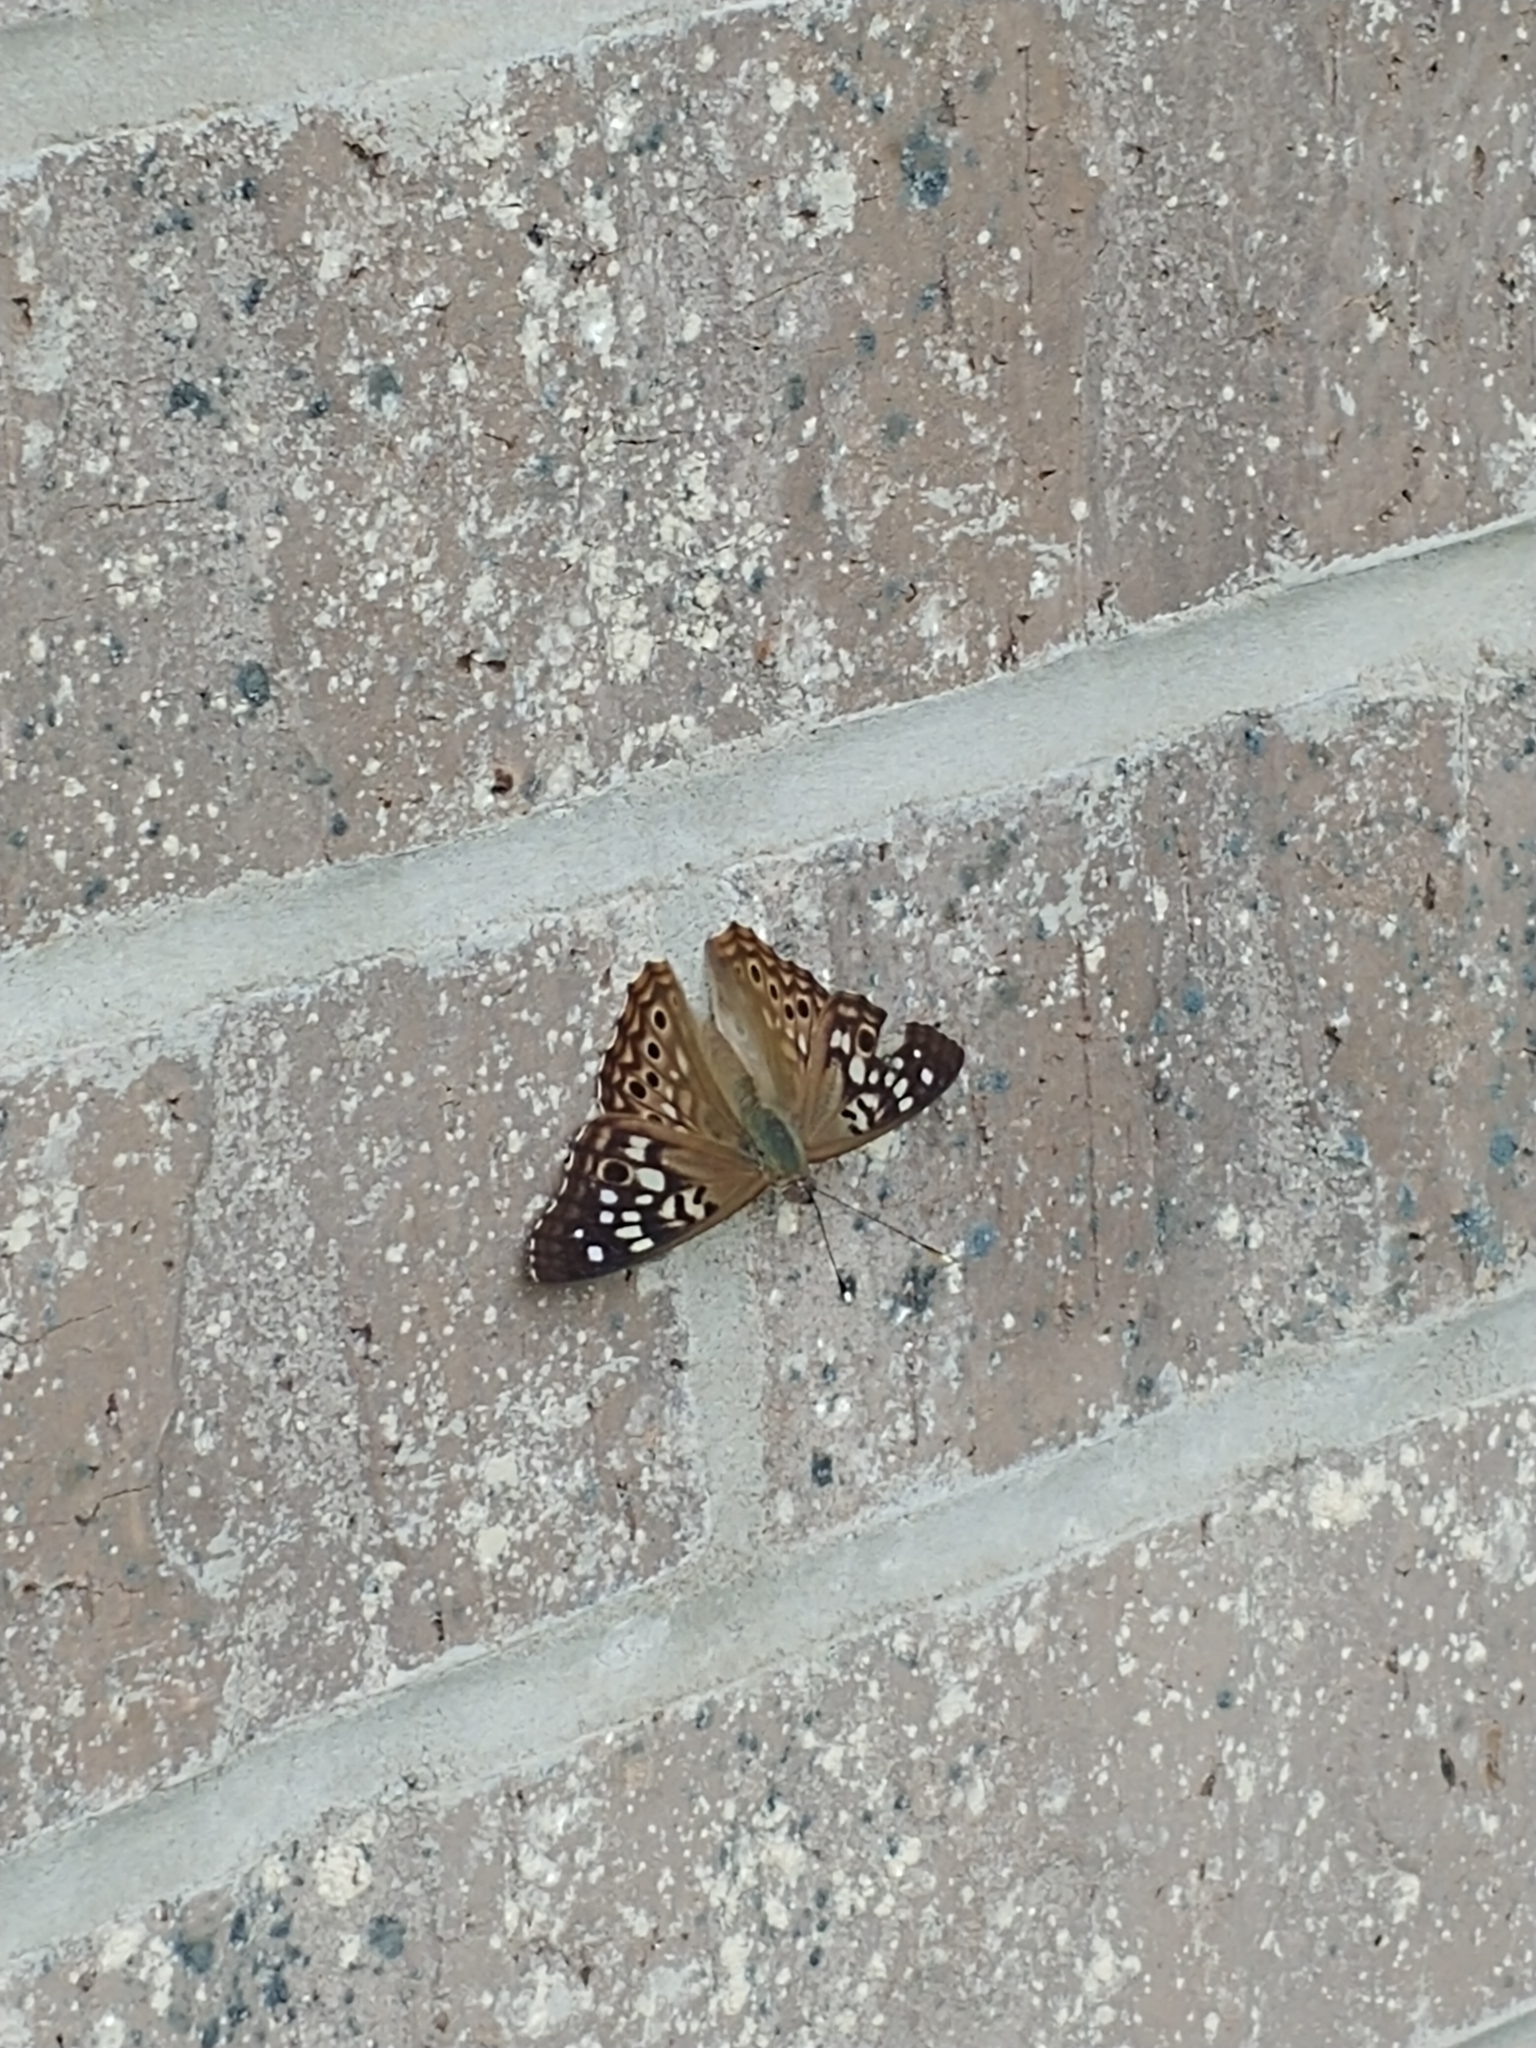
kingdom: Animalia
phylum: Arthropoda
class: Insecta
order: Lepidoptera
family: Nymphalidae
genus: Asterocampa
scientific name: Asterocampa celtis
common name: Hackberry emperor
